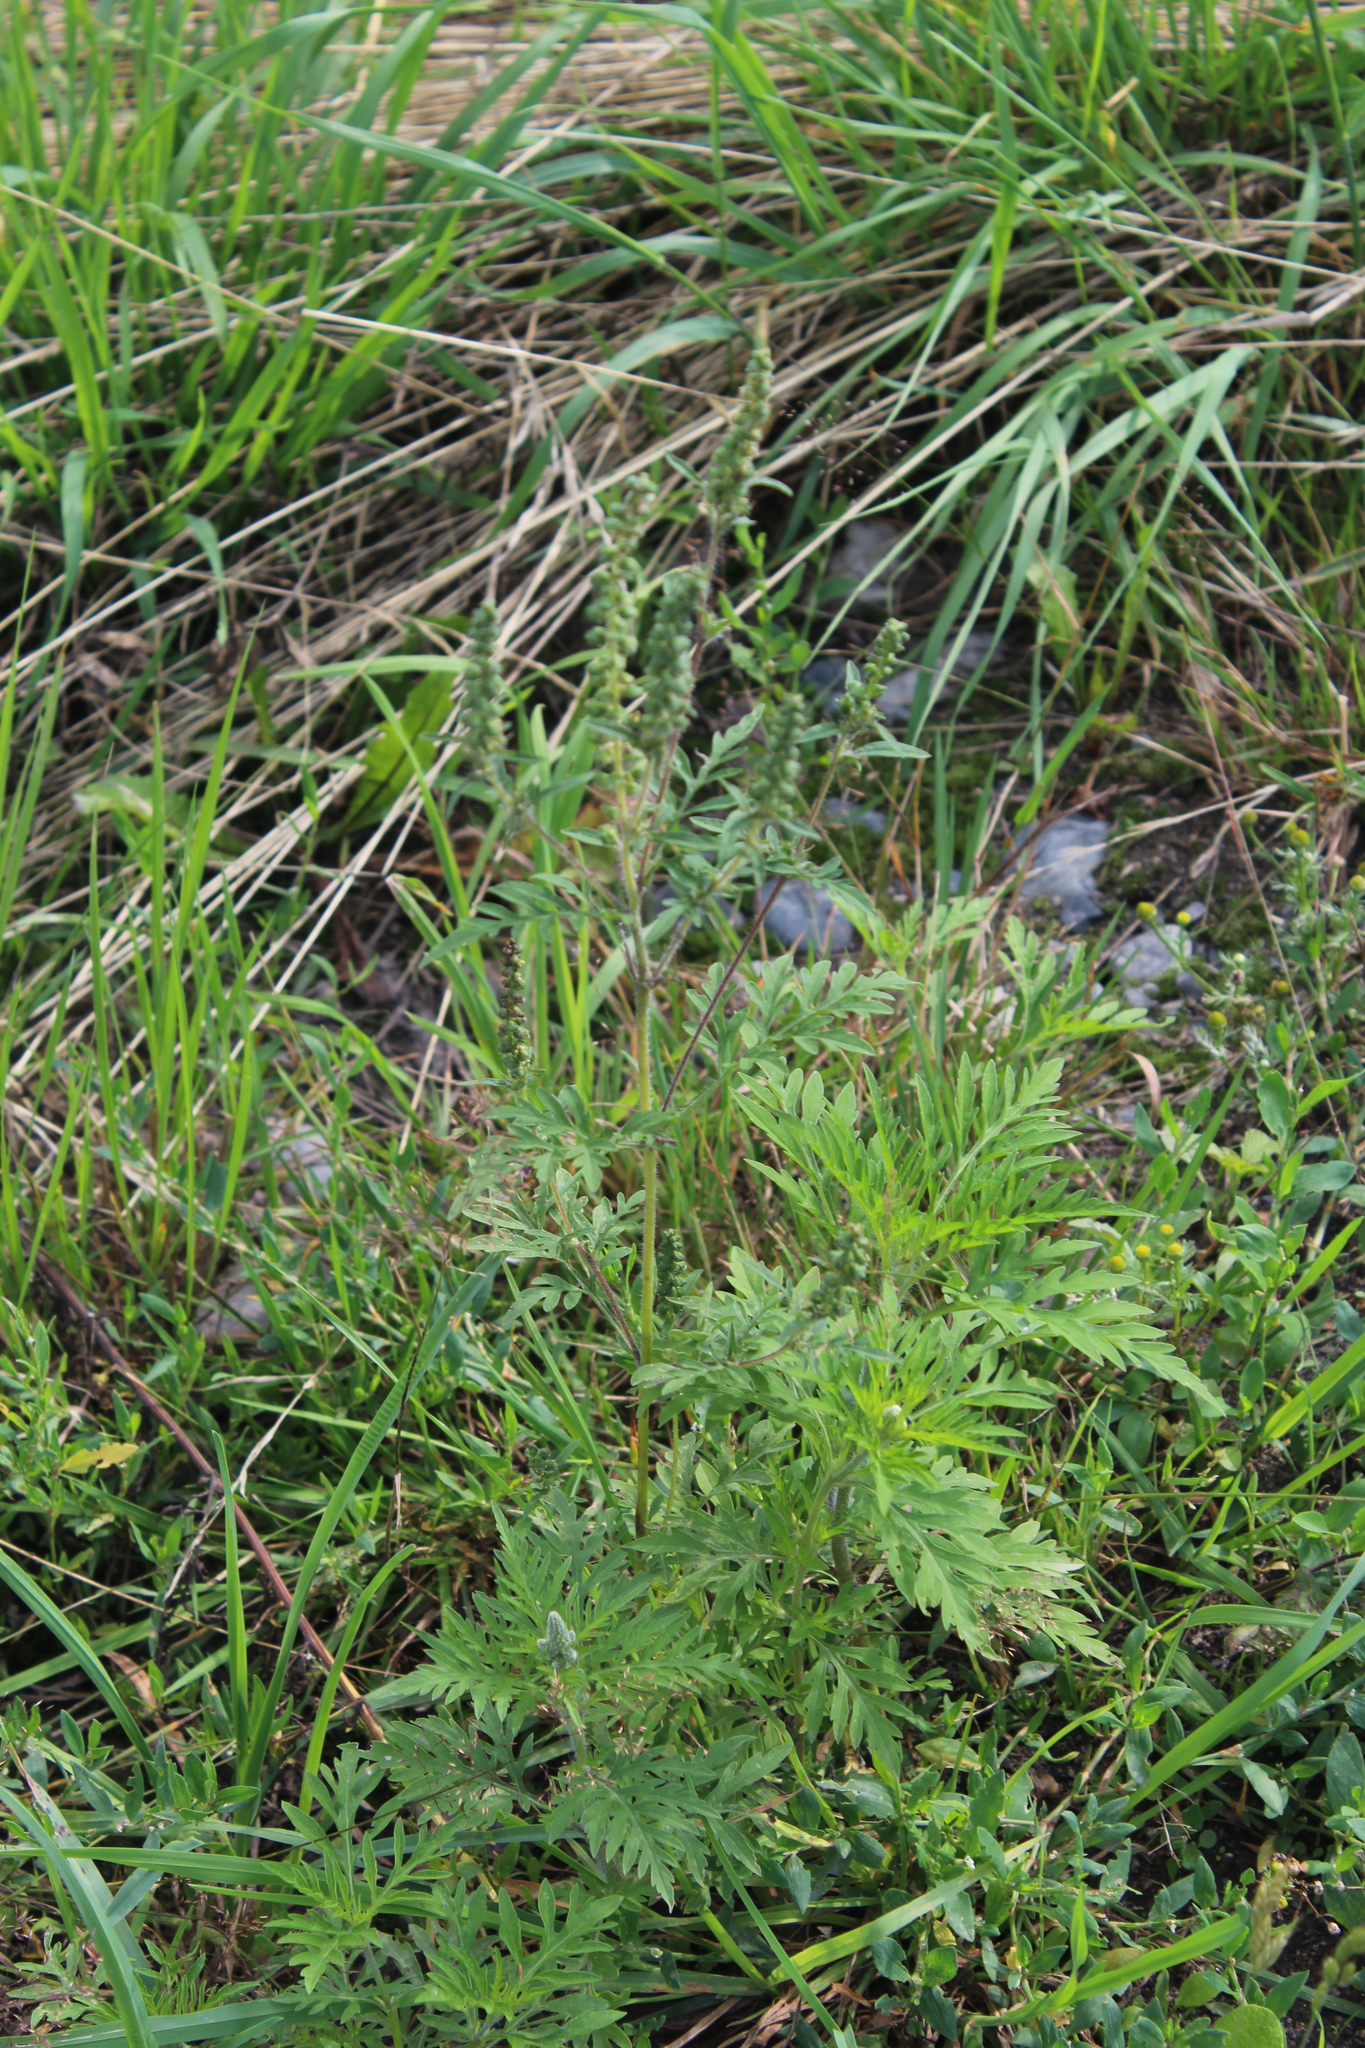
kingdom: Plantae
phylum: Tracheophyta
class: Magnoliopsida
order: Asterales
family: Asteraceae
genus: Ambrosia
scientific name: Ambrosia artemisiifolia
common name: Annual ragweed
